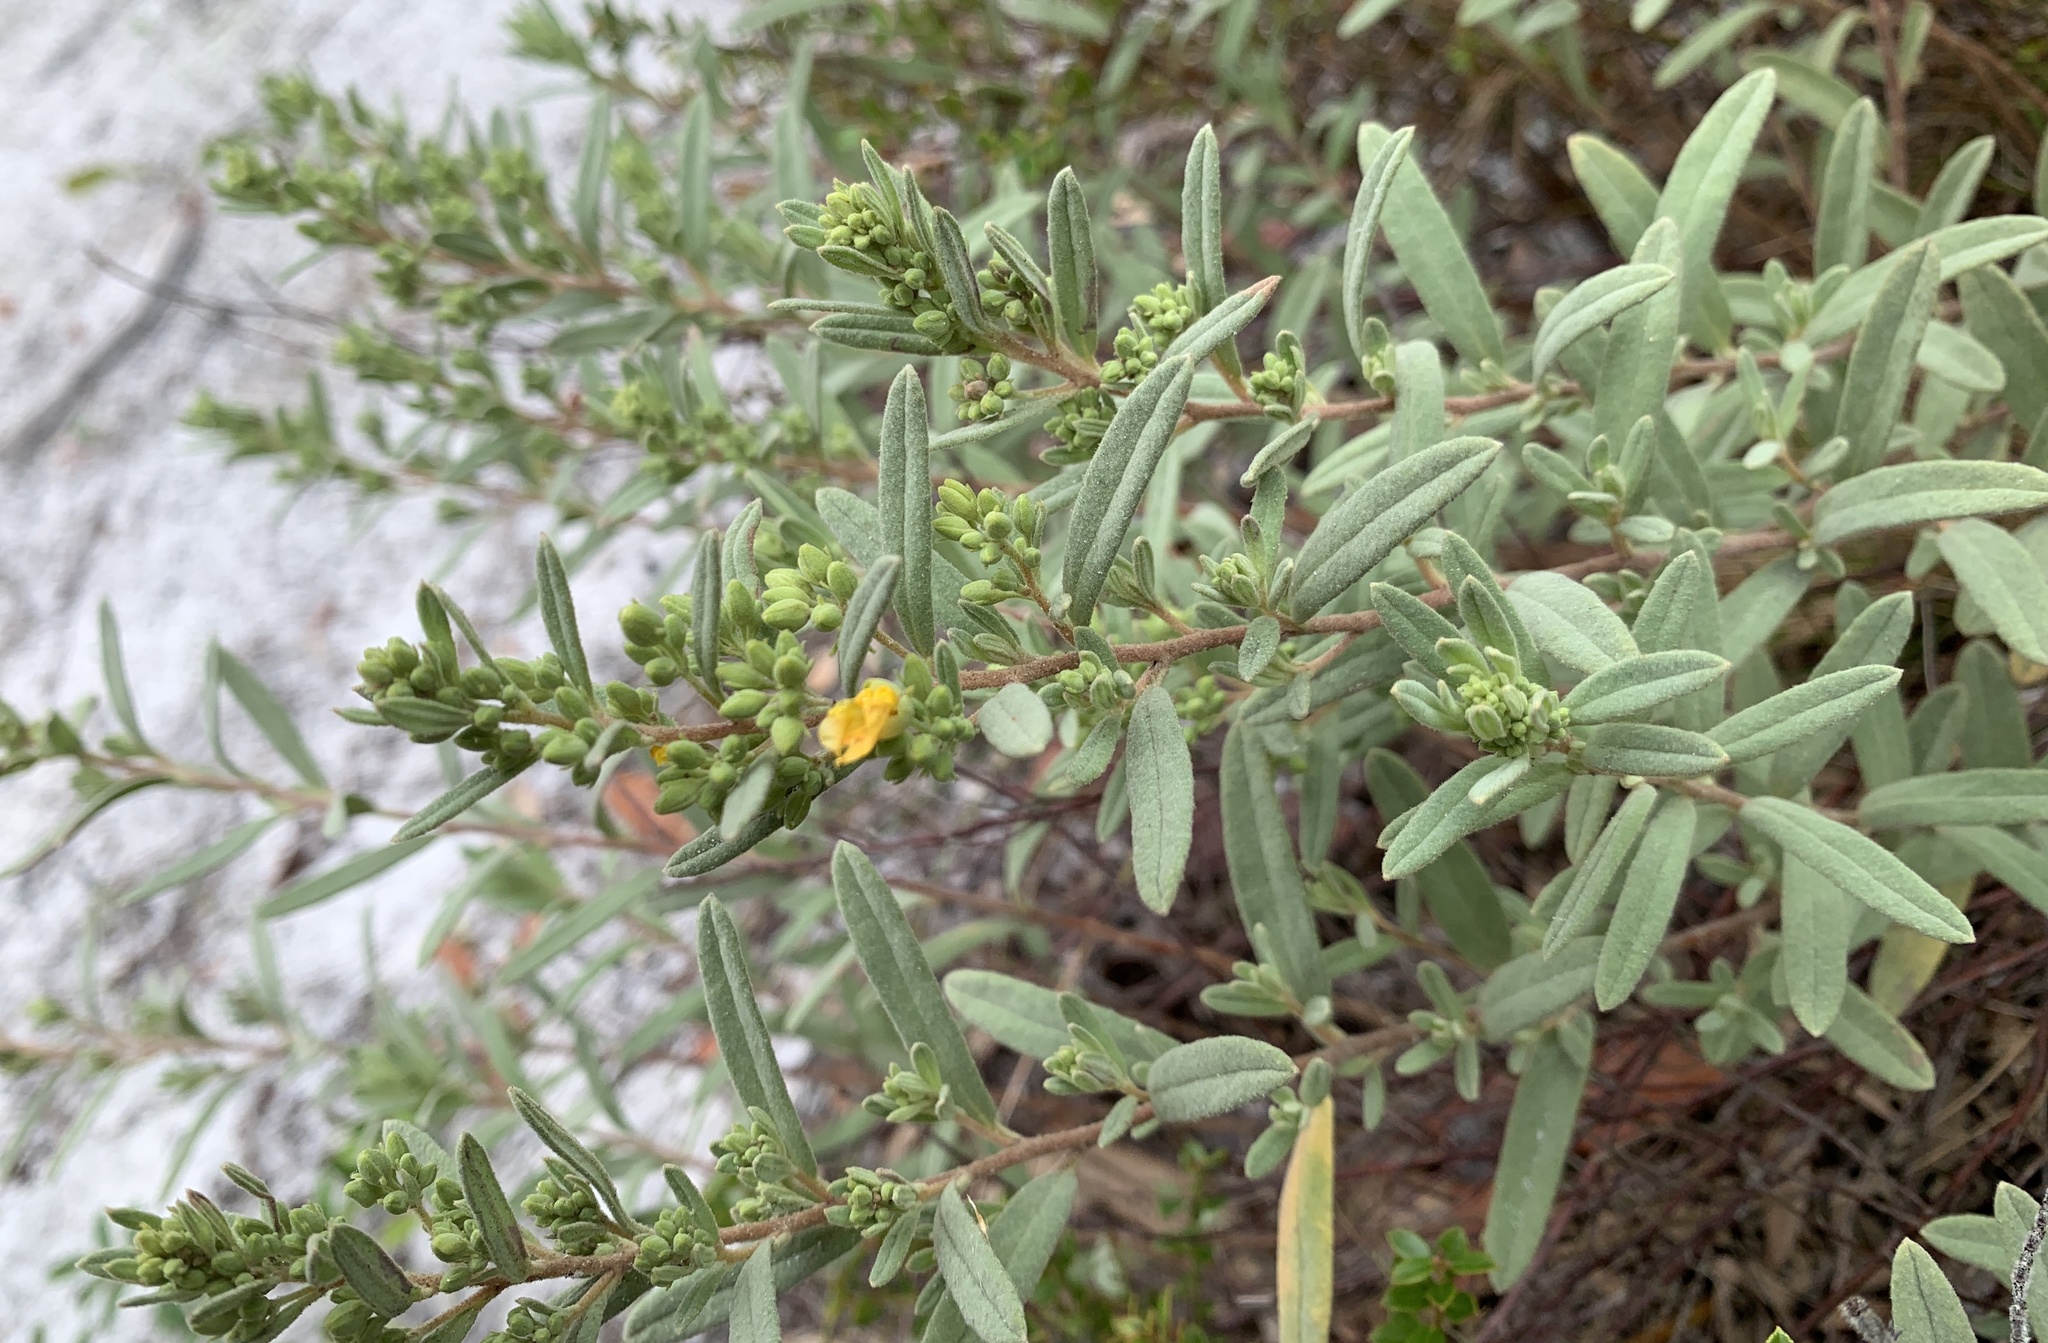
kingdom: Plantae
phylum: Tracheophyta
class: Magnoliopsida
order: Malvales
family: Cistaceae
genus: Crocanthemum
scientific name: Crocanthemum nashii
